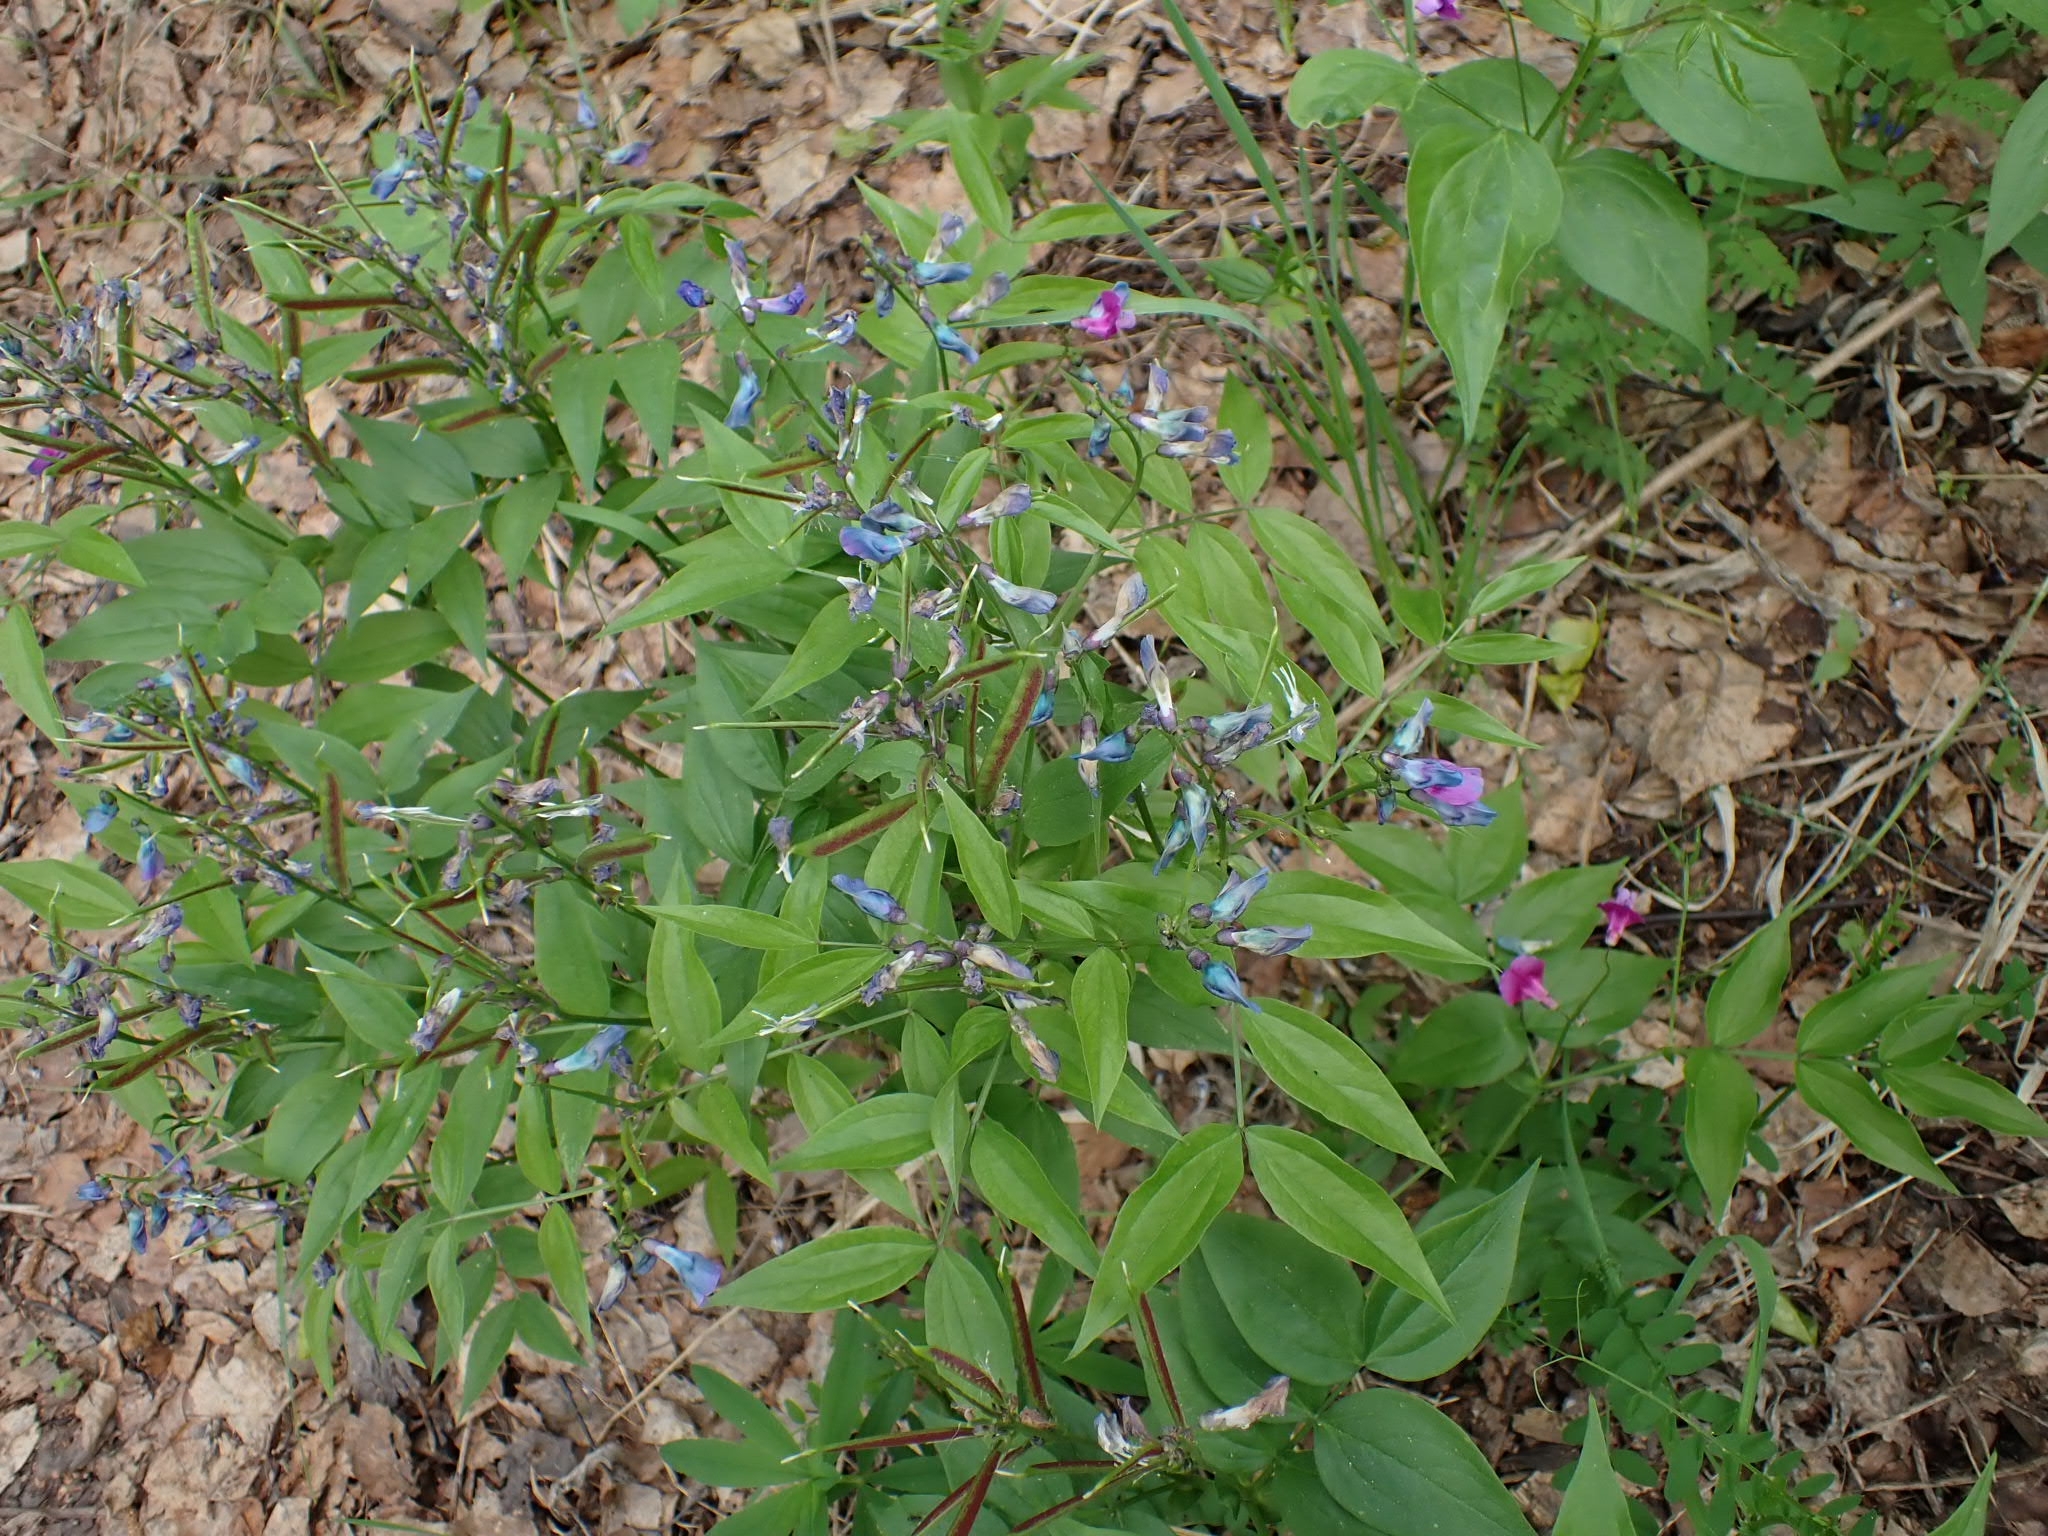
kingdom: Plantae
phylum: Tracheophyta
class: Magnoliopsida
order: Fabales
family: Fabaceae
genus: Lathyrus
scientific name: Lathyrus vernus
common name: Spring pea
